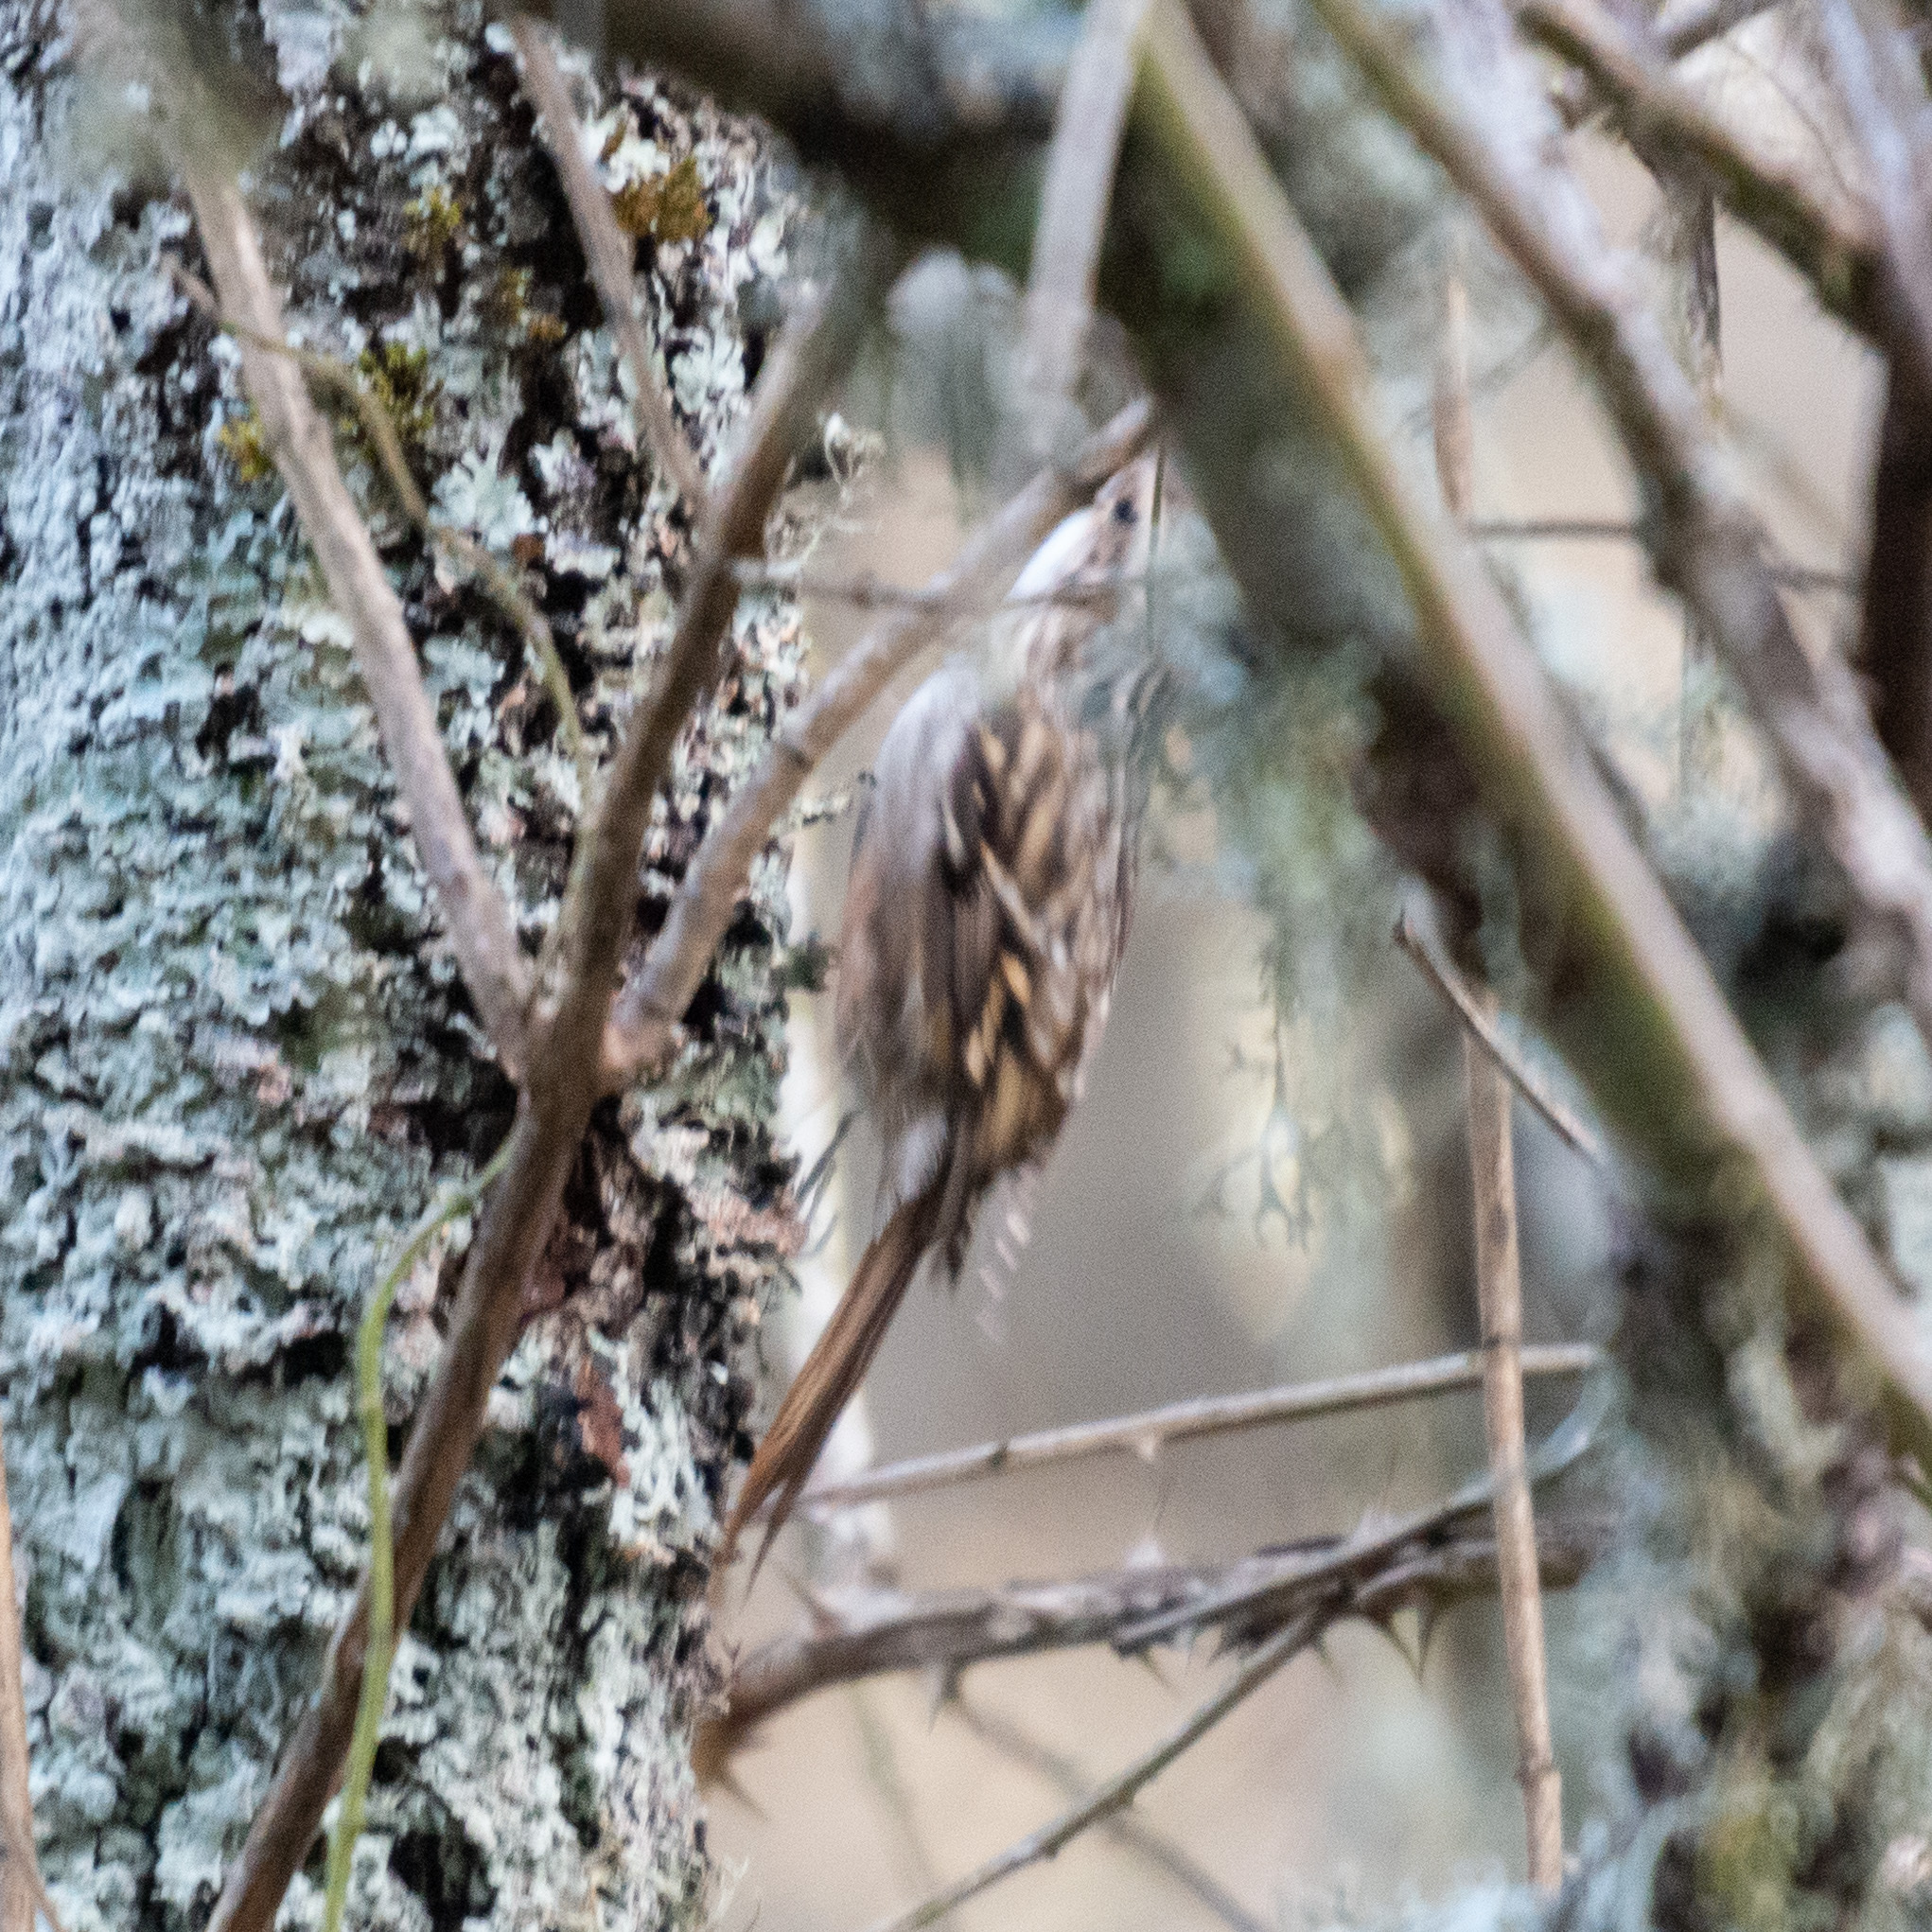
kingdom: Animalia
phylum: Chordata
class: Aves
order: Passeriformes
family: Certhiidae
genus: Certhia
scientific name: Certhia brachydactyla
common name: Short-toed treecreeper
